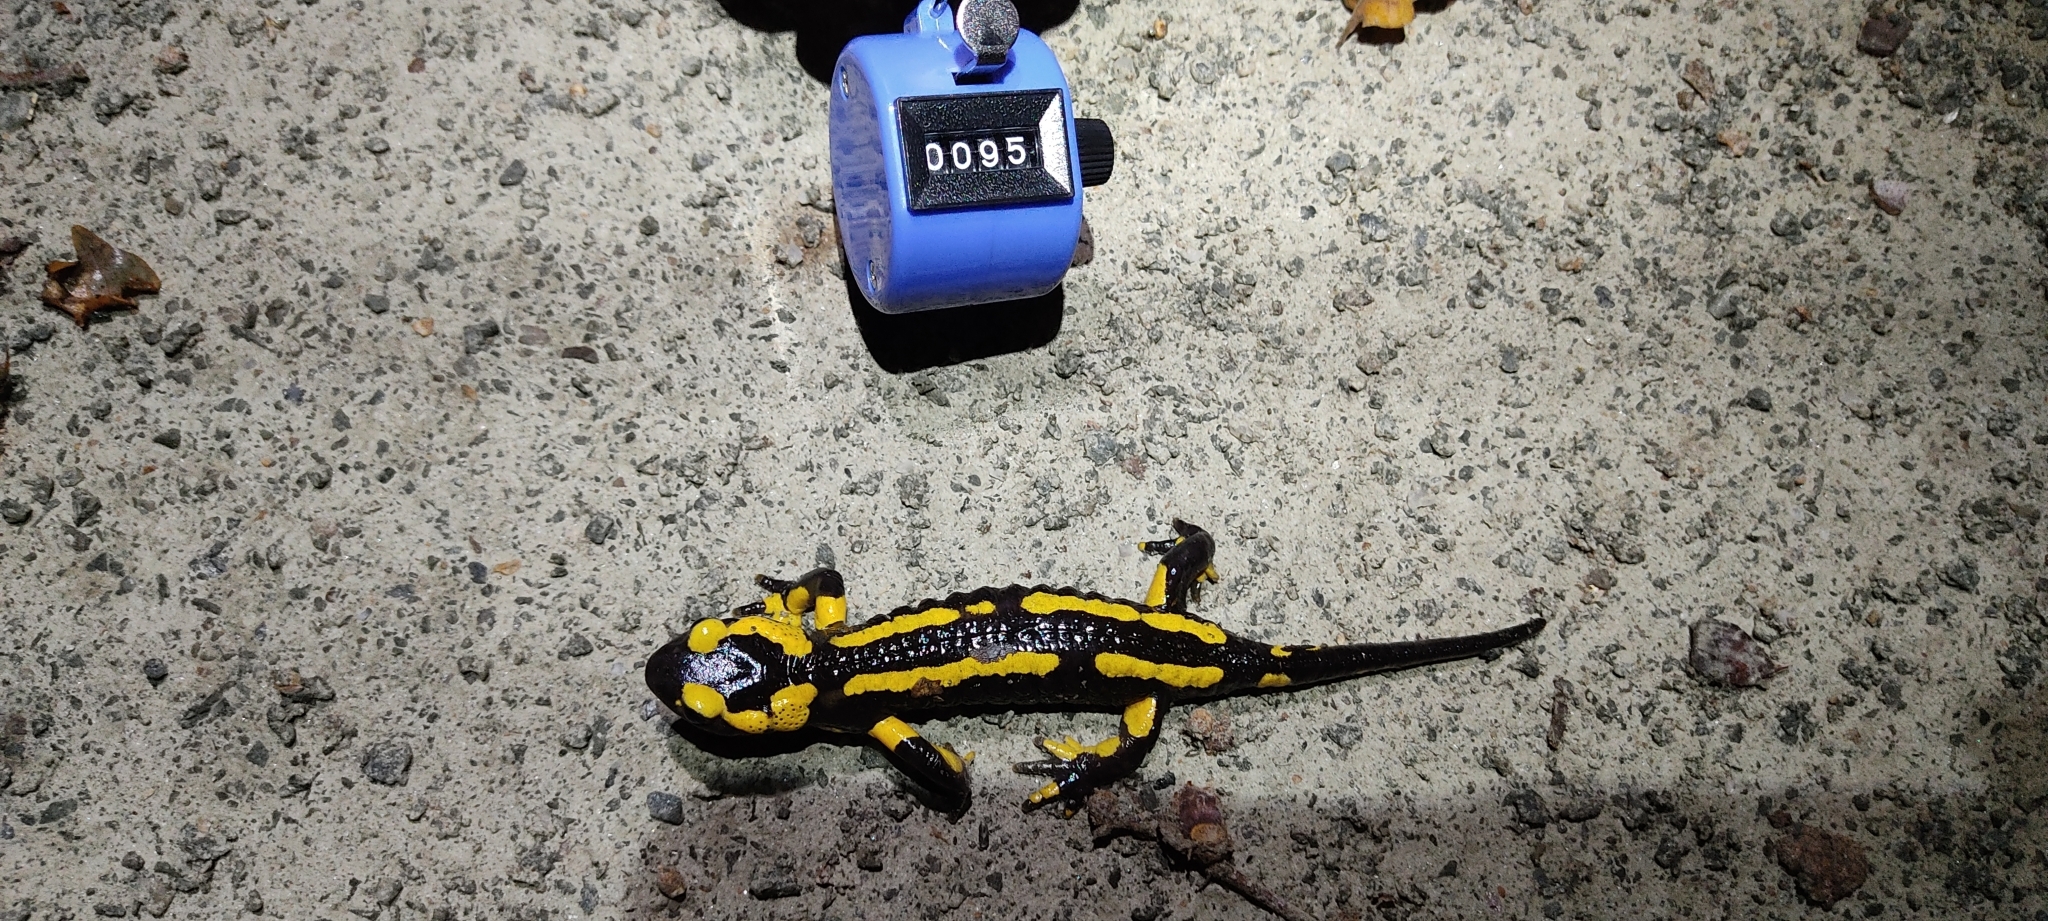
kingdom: Animalia
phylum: Chordata
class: Amphibia
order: Caudata
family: Salamandridae
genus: Salamandra
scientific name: Salamandra salamandra
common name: Fire salamander
